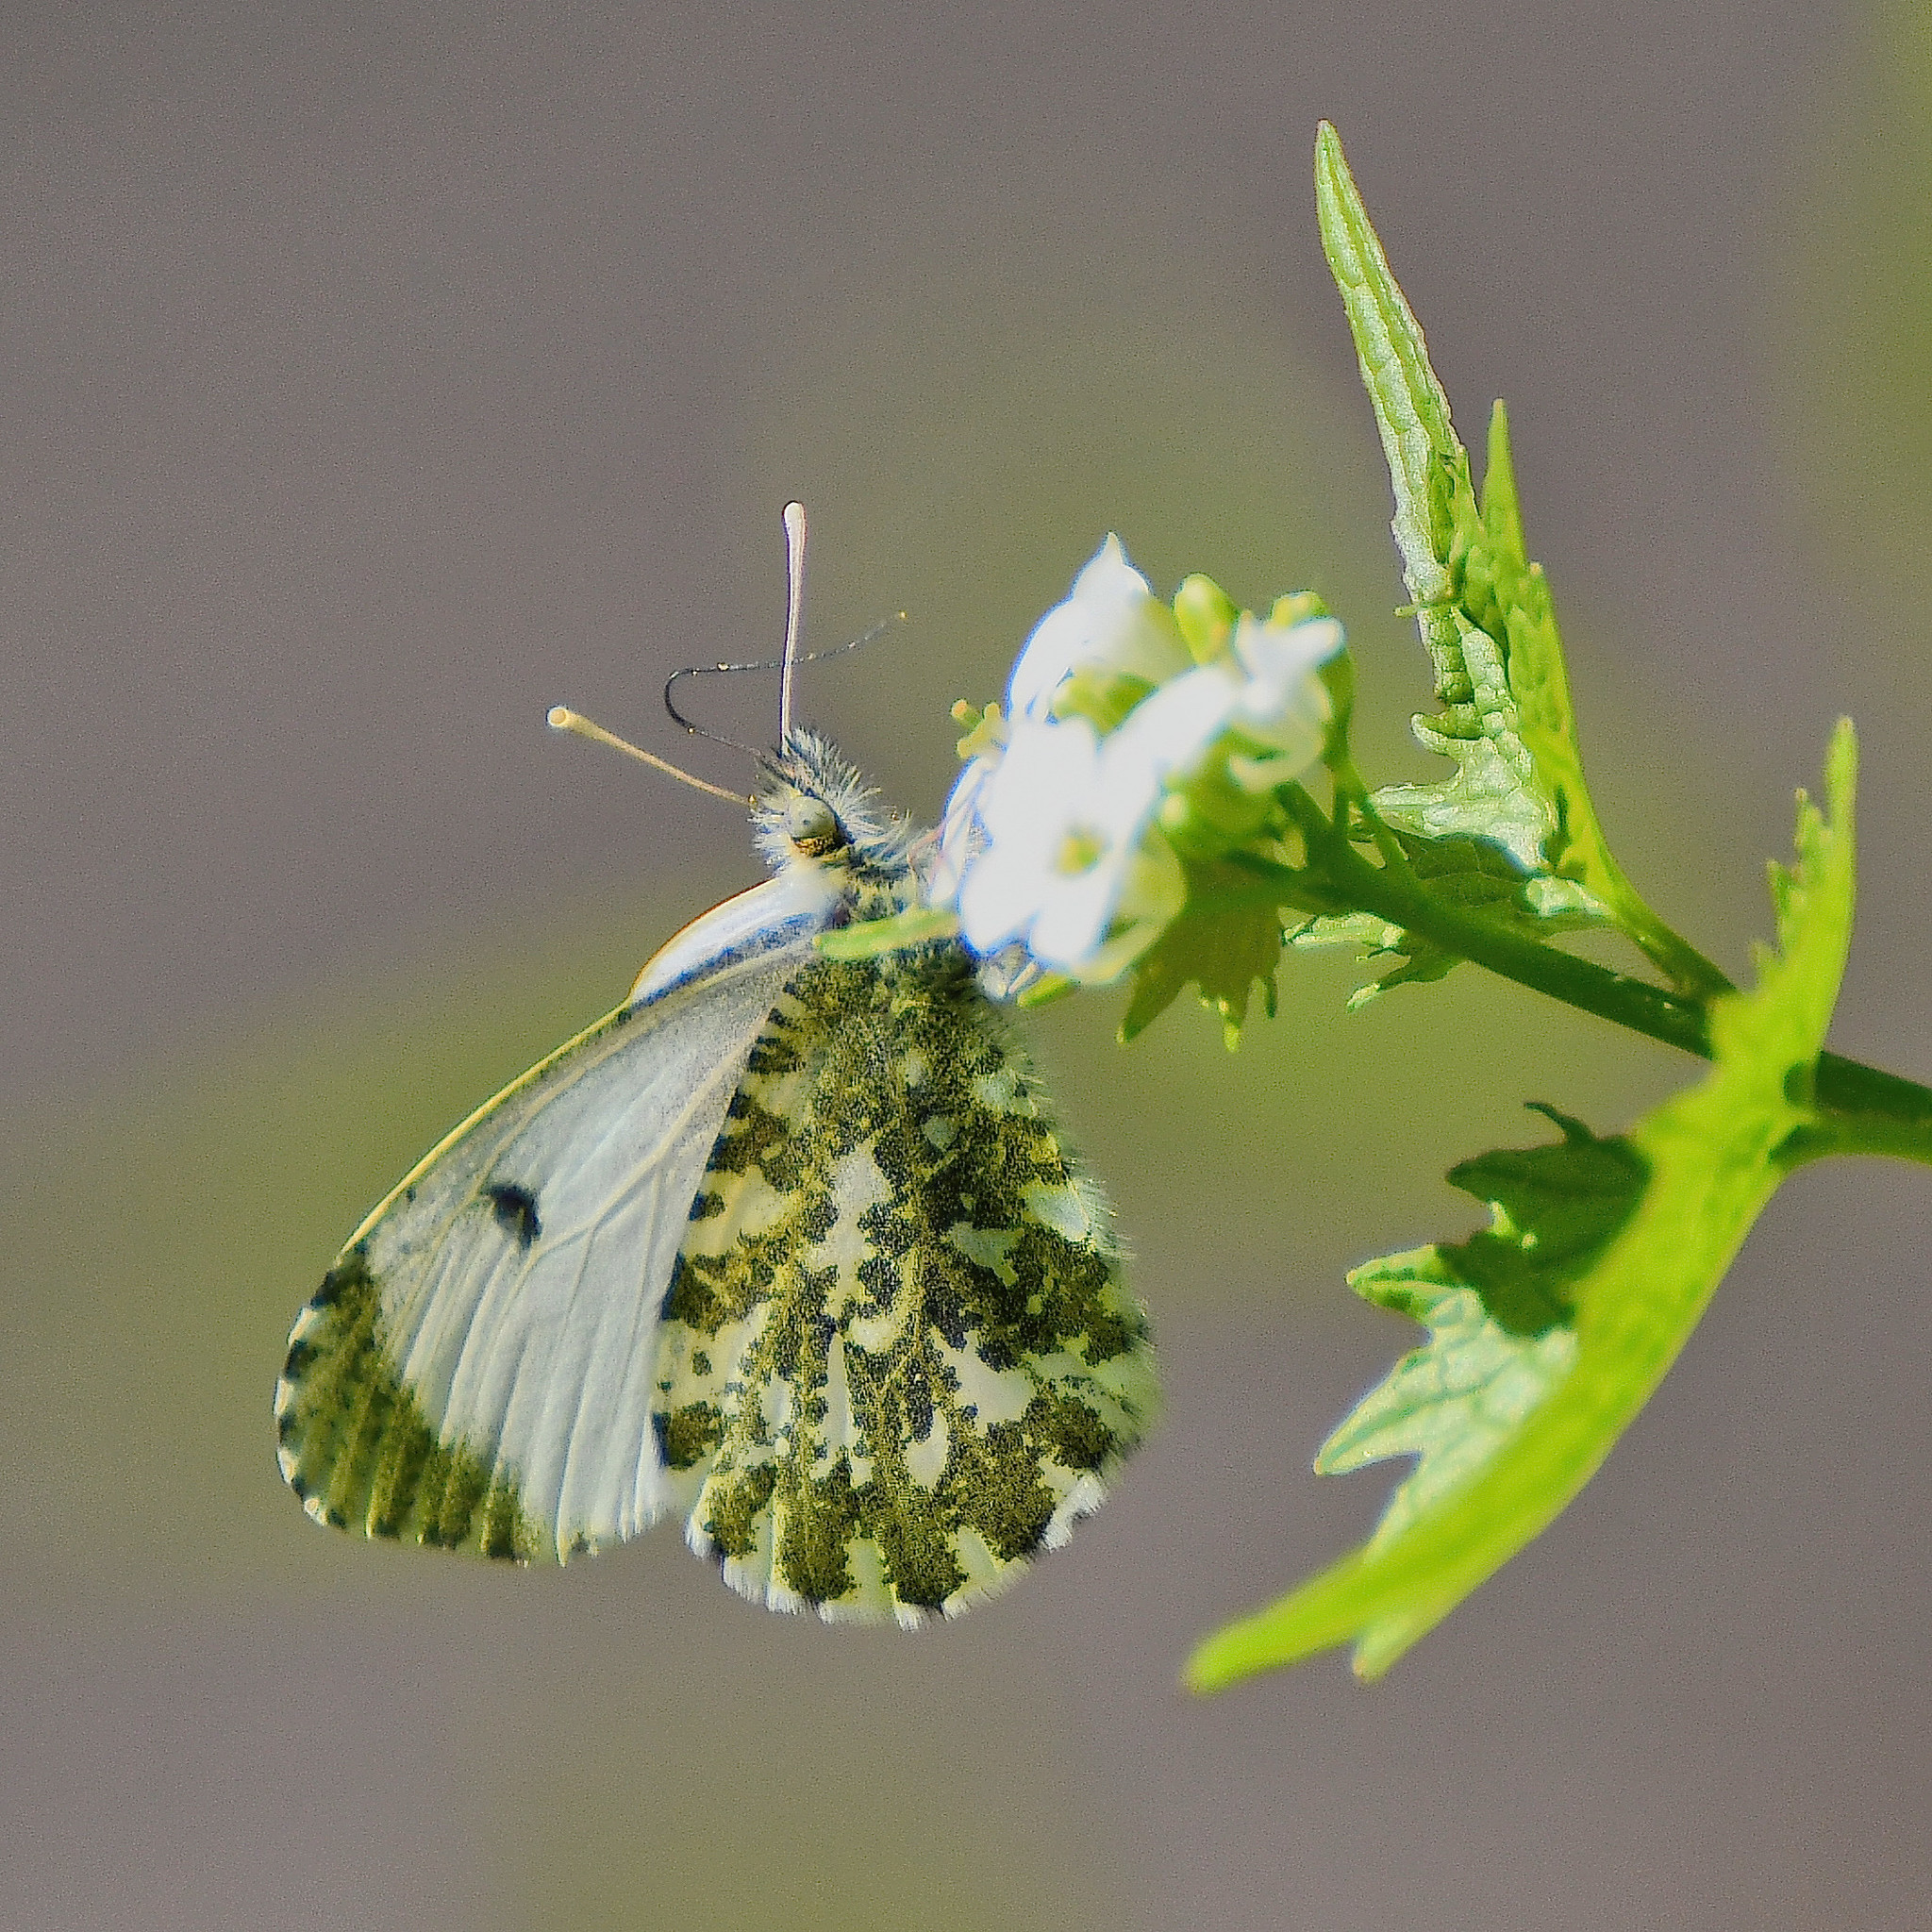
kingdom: Animalia
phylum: Arthropoda
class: Insecta
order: Lepidoptera
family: Pieridae
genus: Anthocharis
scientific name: Anthocharis cardamines
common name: Orange-tip
